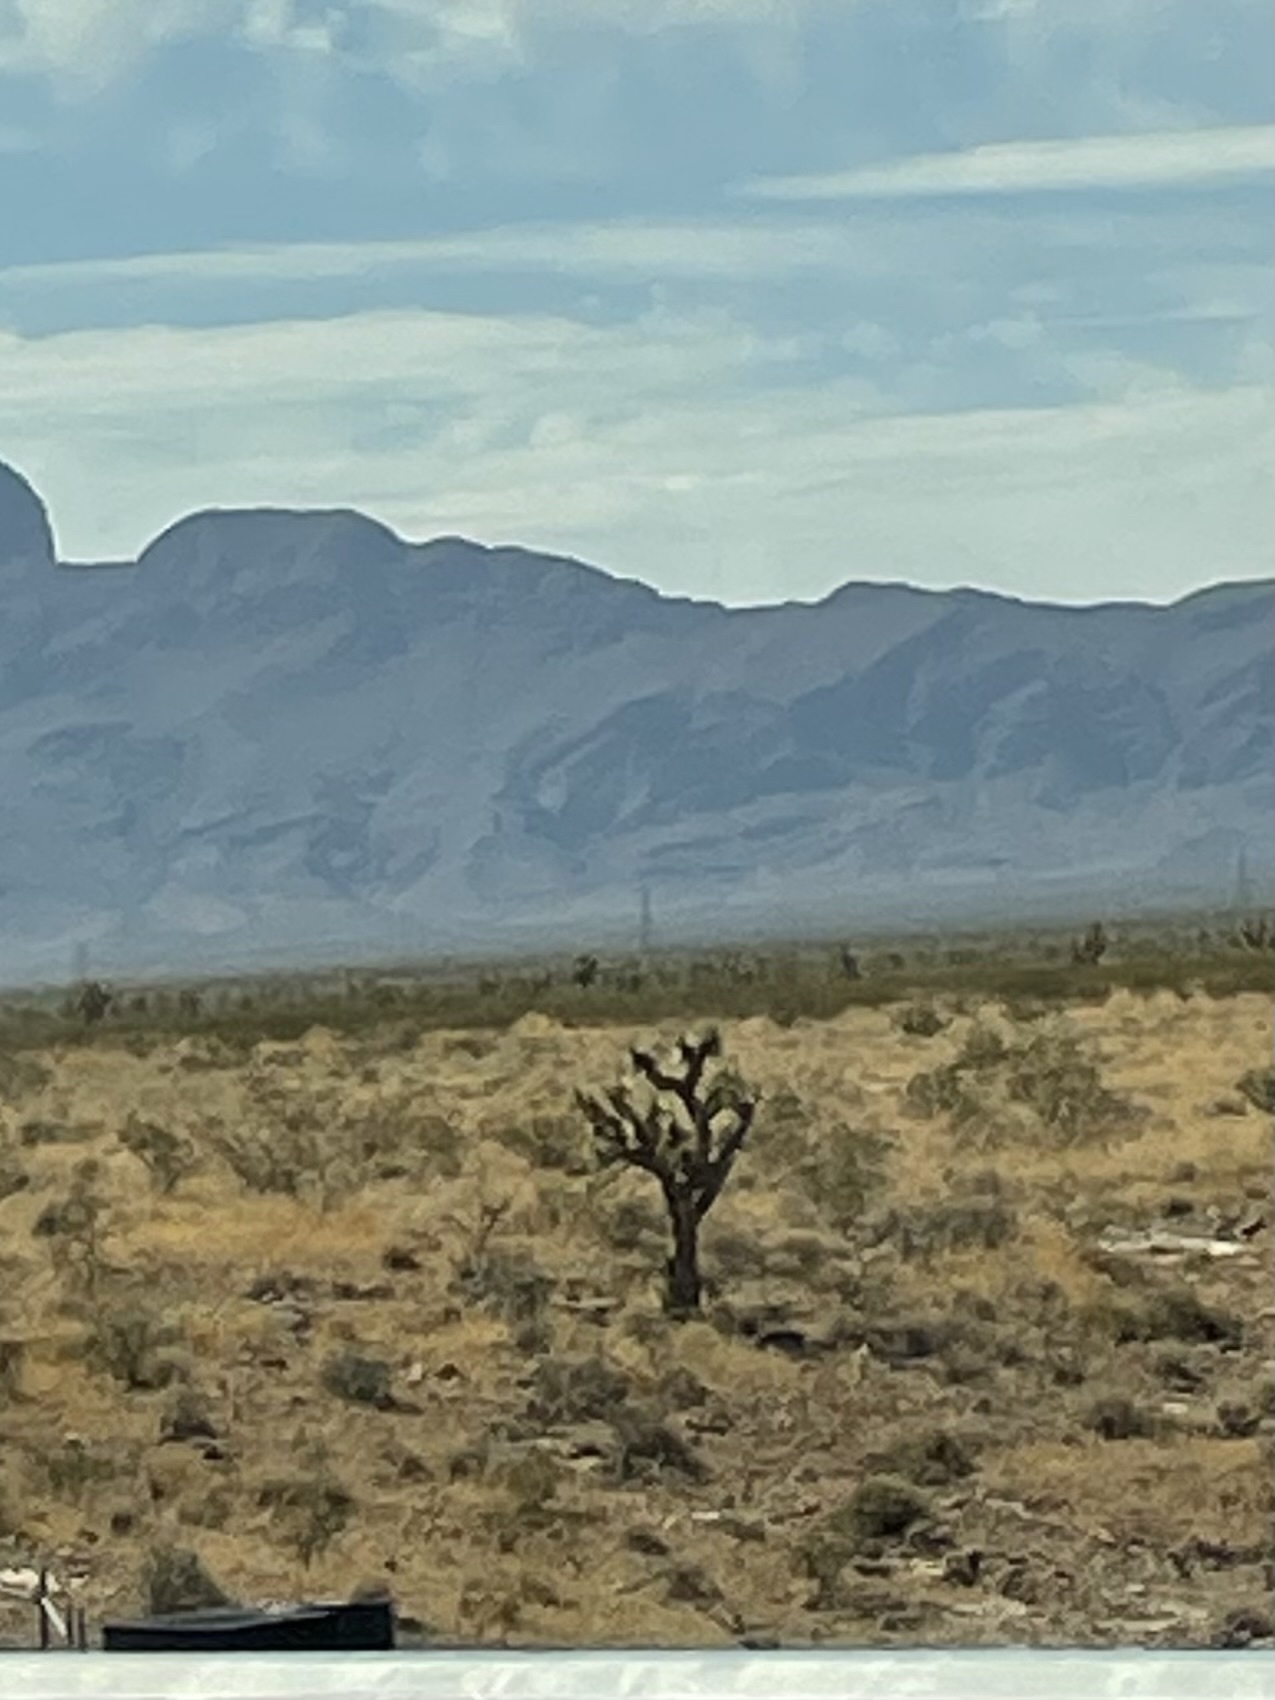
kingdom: Plantae
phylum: Tracheophyta
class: Liliopsida
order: Asparagales
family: Asparagaceae
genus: Yucca
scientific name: Yucca brevifolia
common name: Joshua tree
